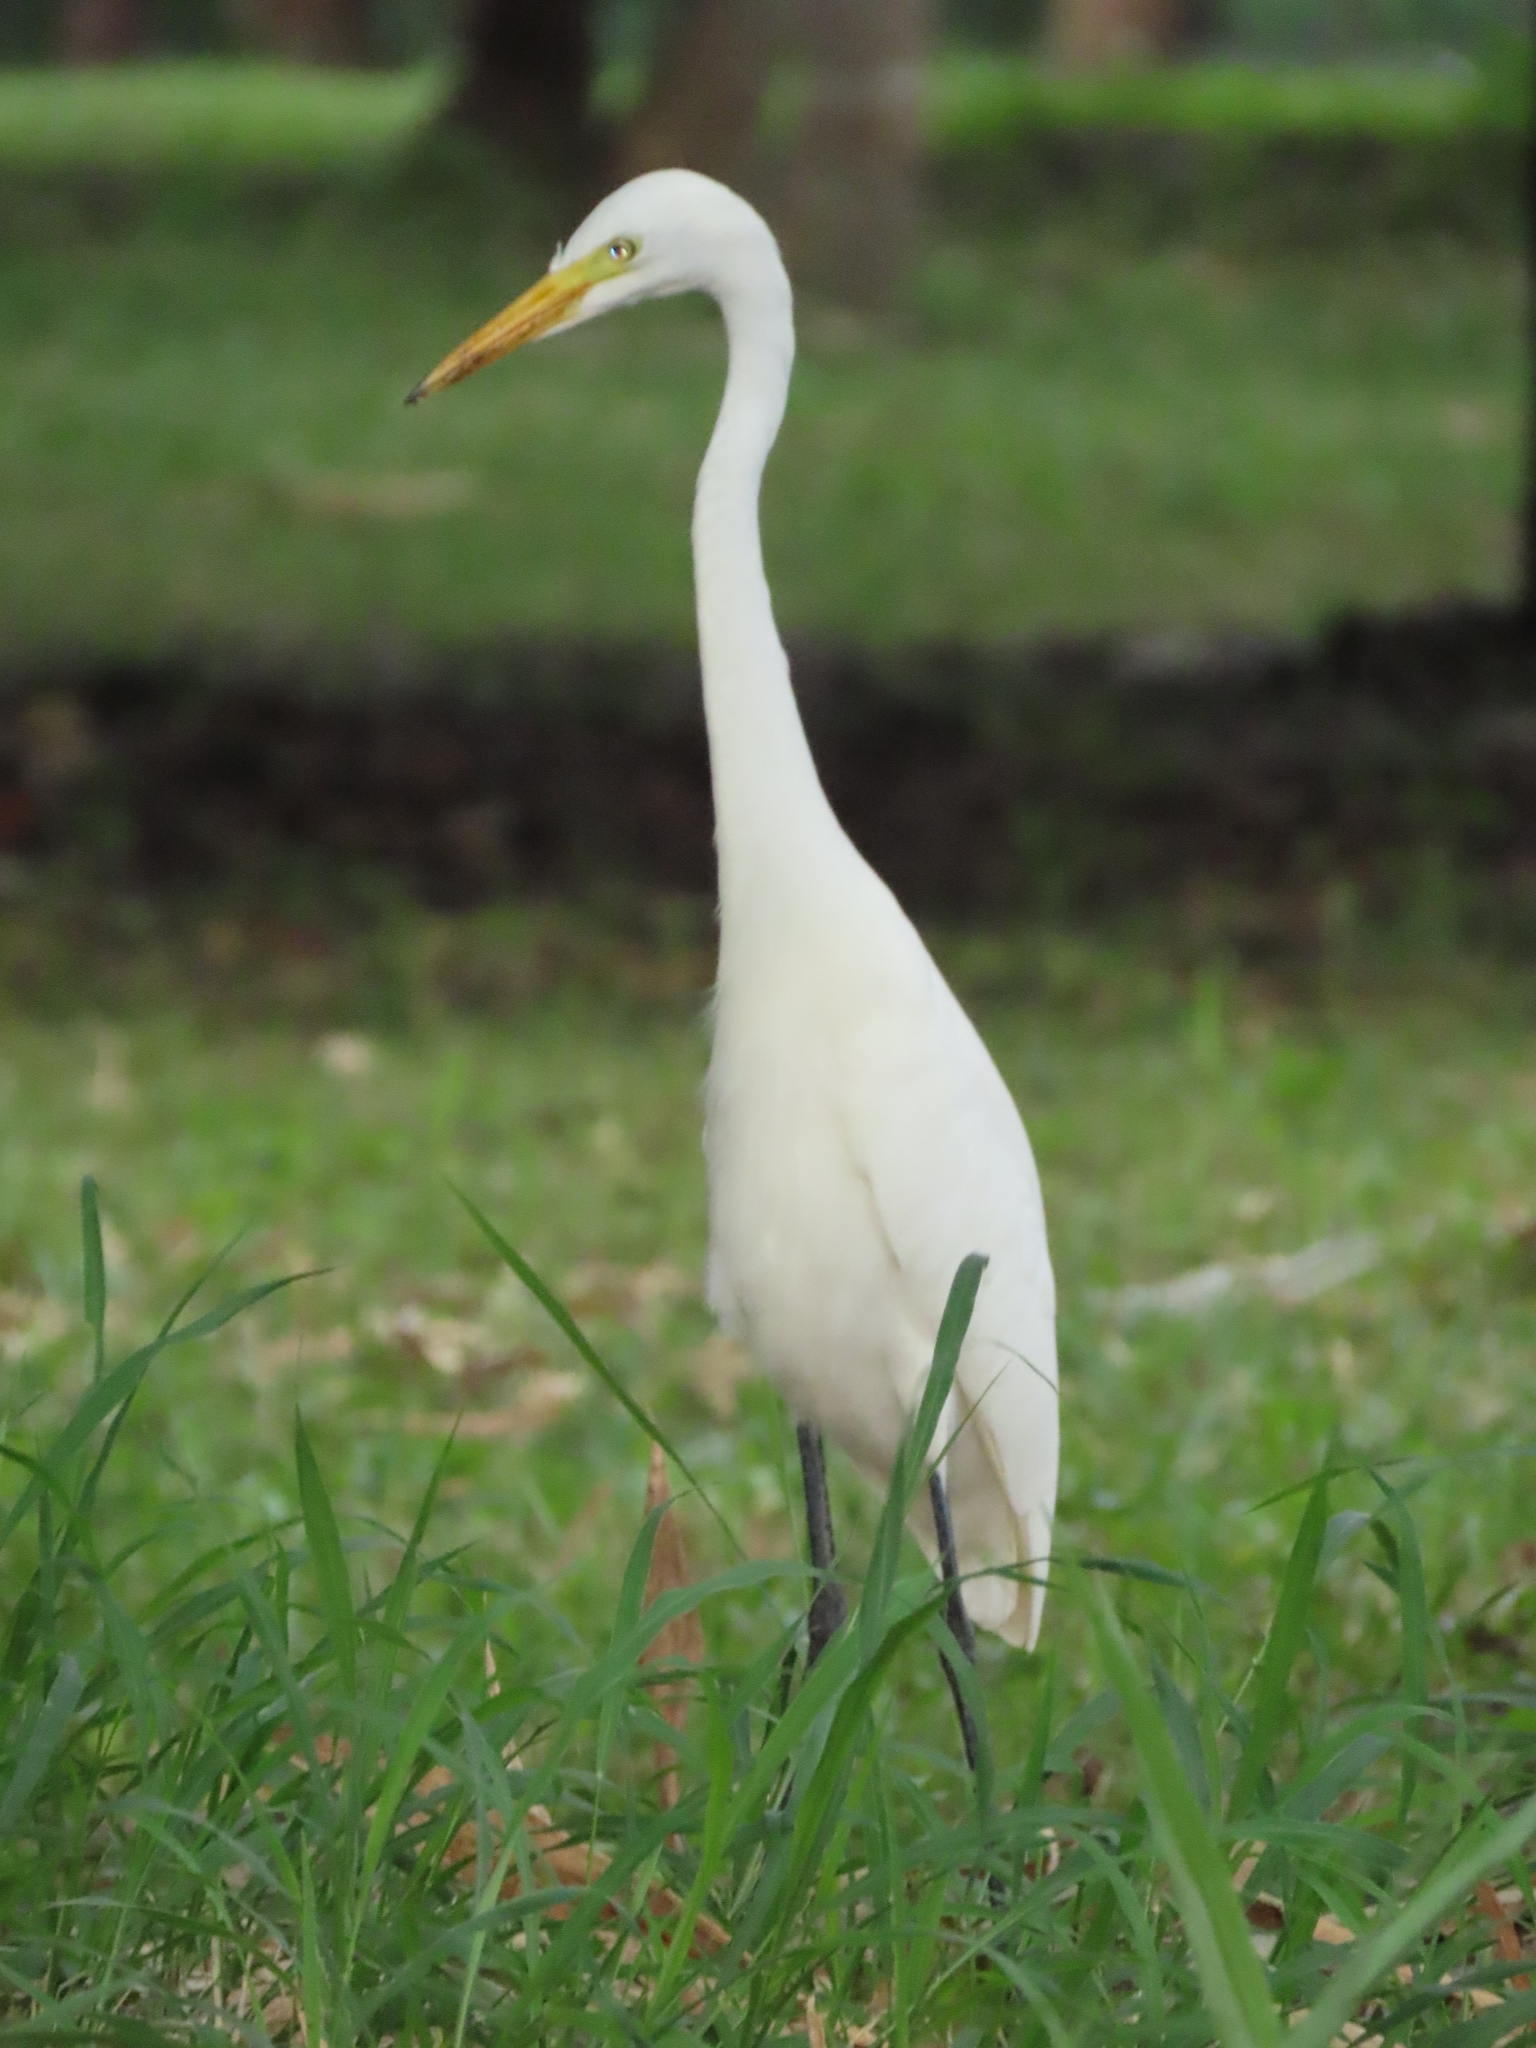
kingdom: Animalia
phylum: Chordata
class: Aves
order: Pelecaniformes
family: Ardeidae
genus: Egretta
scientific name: Egretta intermedia
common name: Intermediate egret
